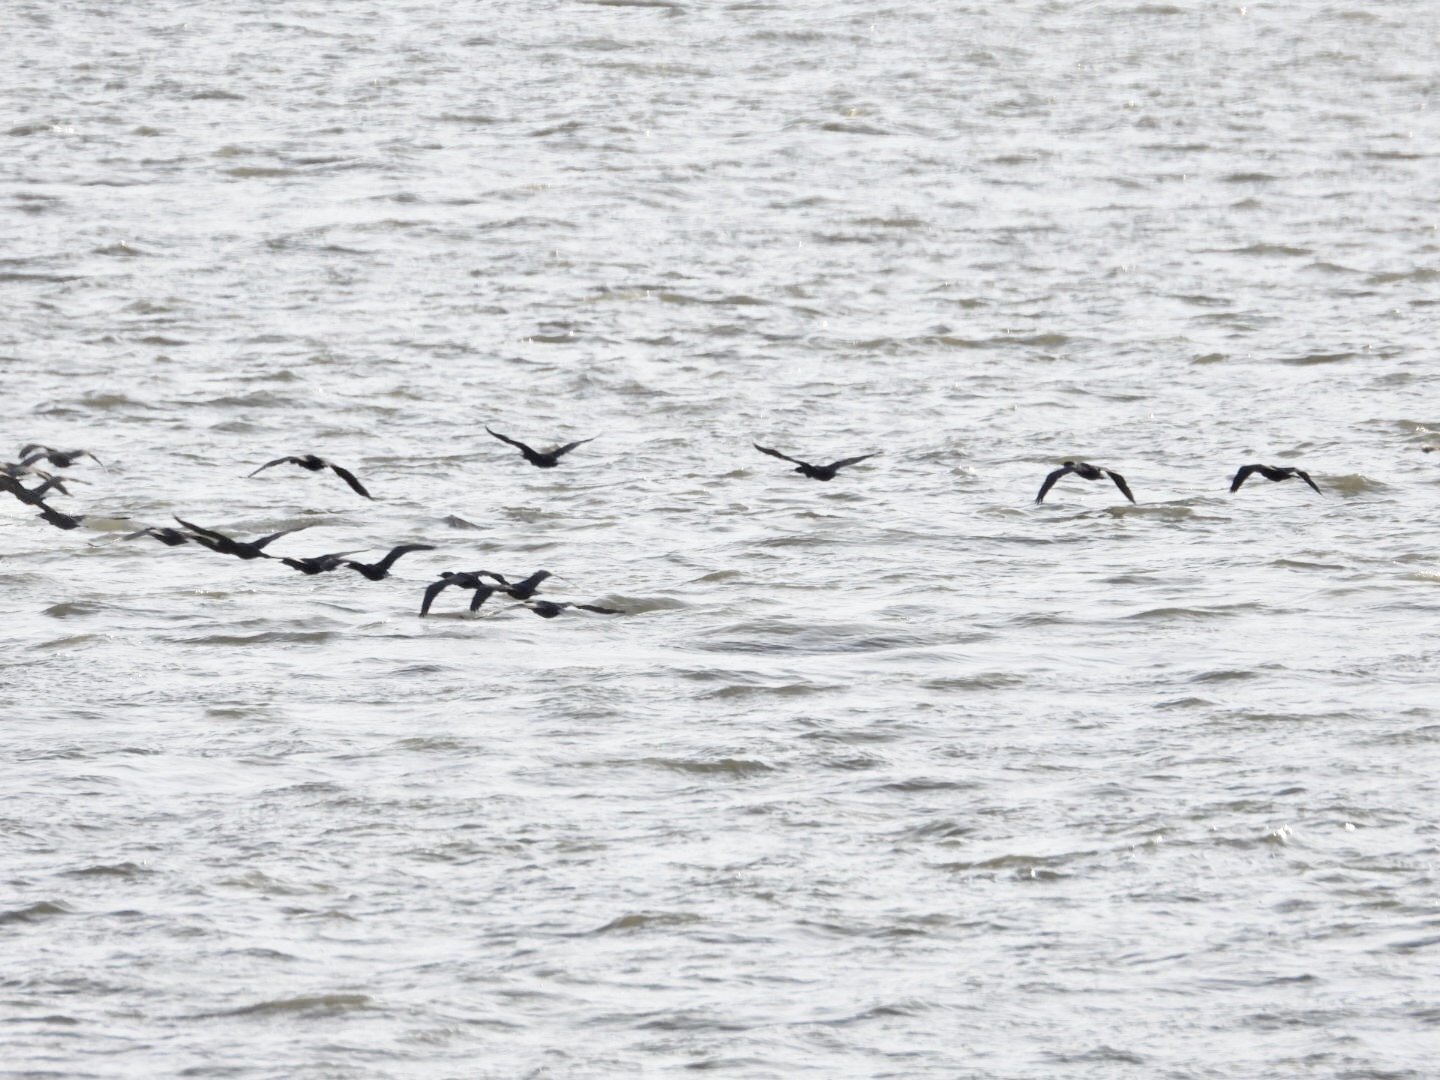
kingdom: Animalia
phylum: Chordata
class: Aves
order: Suliformes
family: Phalacrocoracidae
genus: Phalacrocorax
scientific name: Phalacrocorax auritus
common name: Double-crested cormorant
